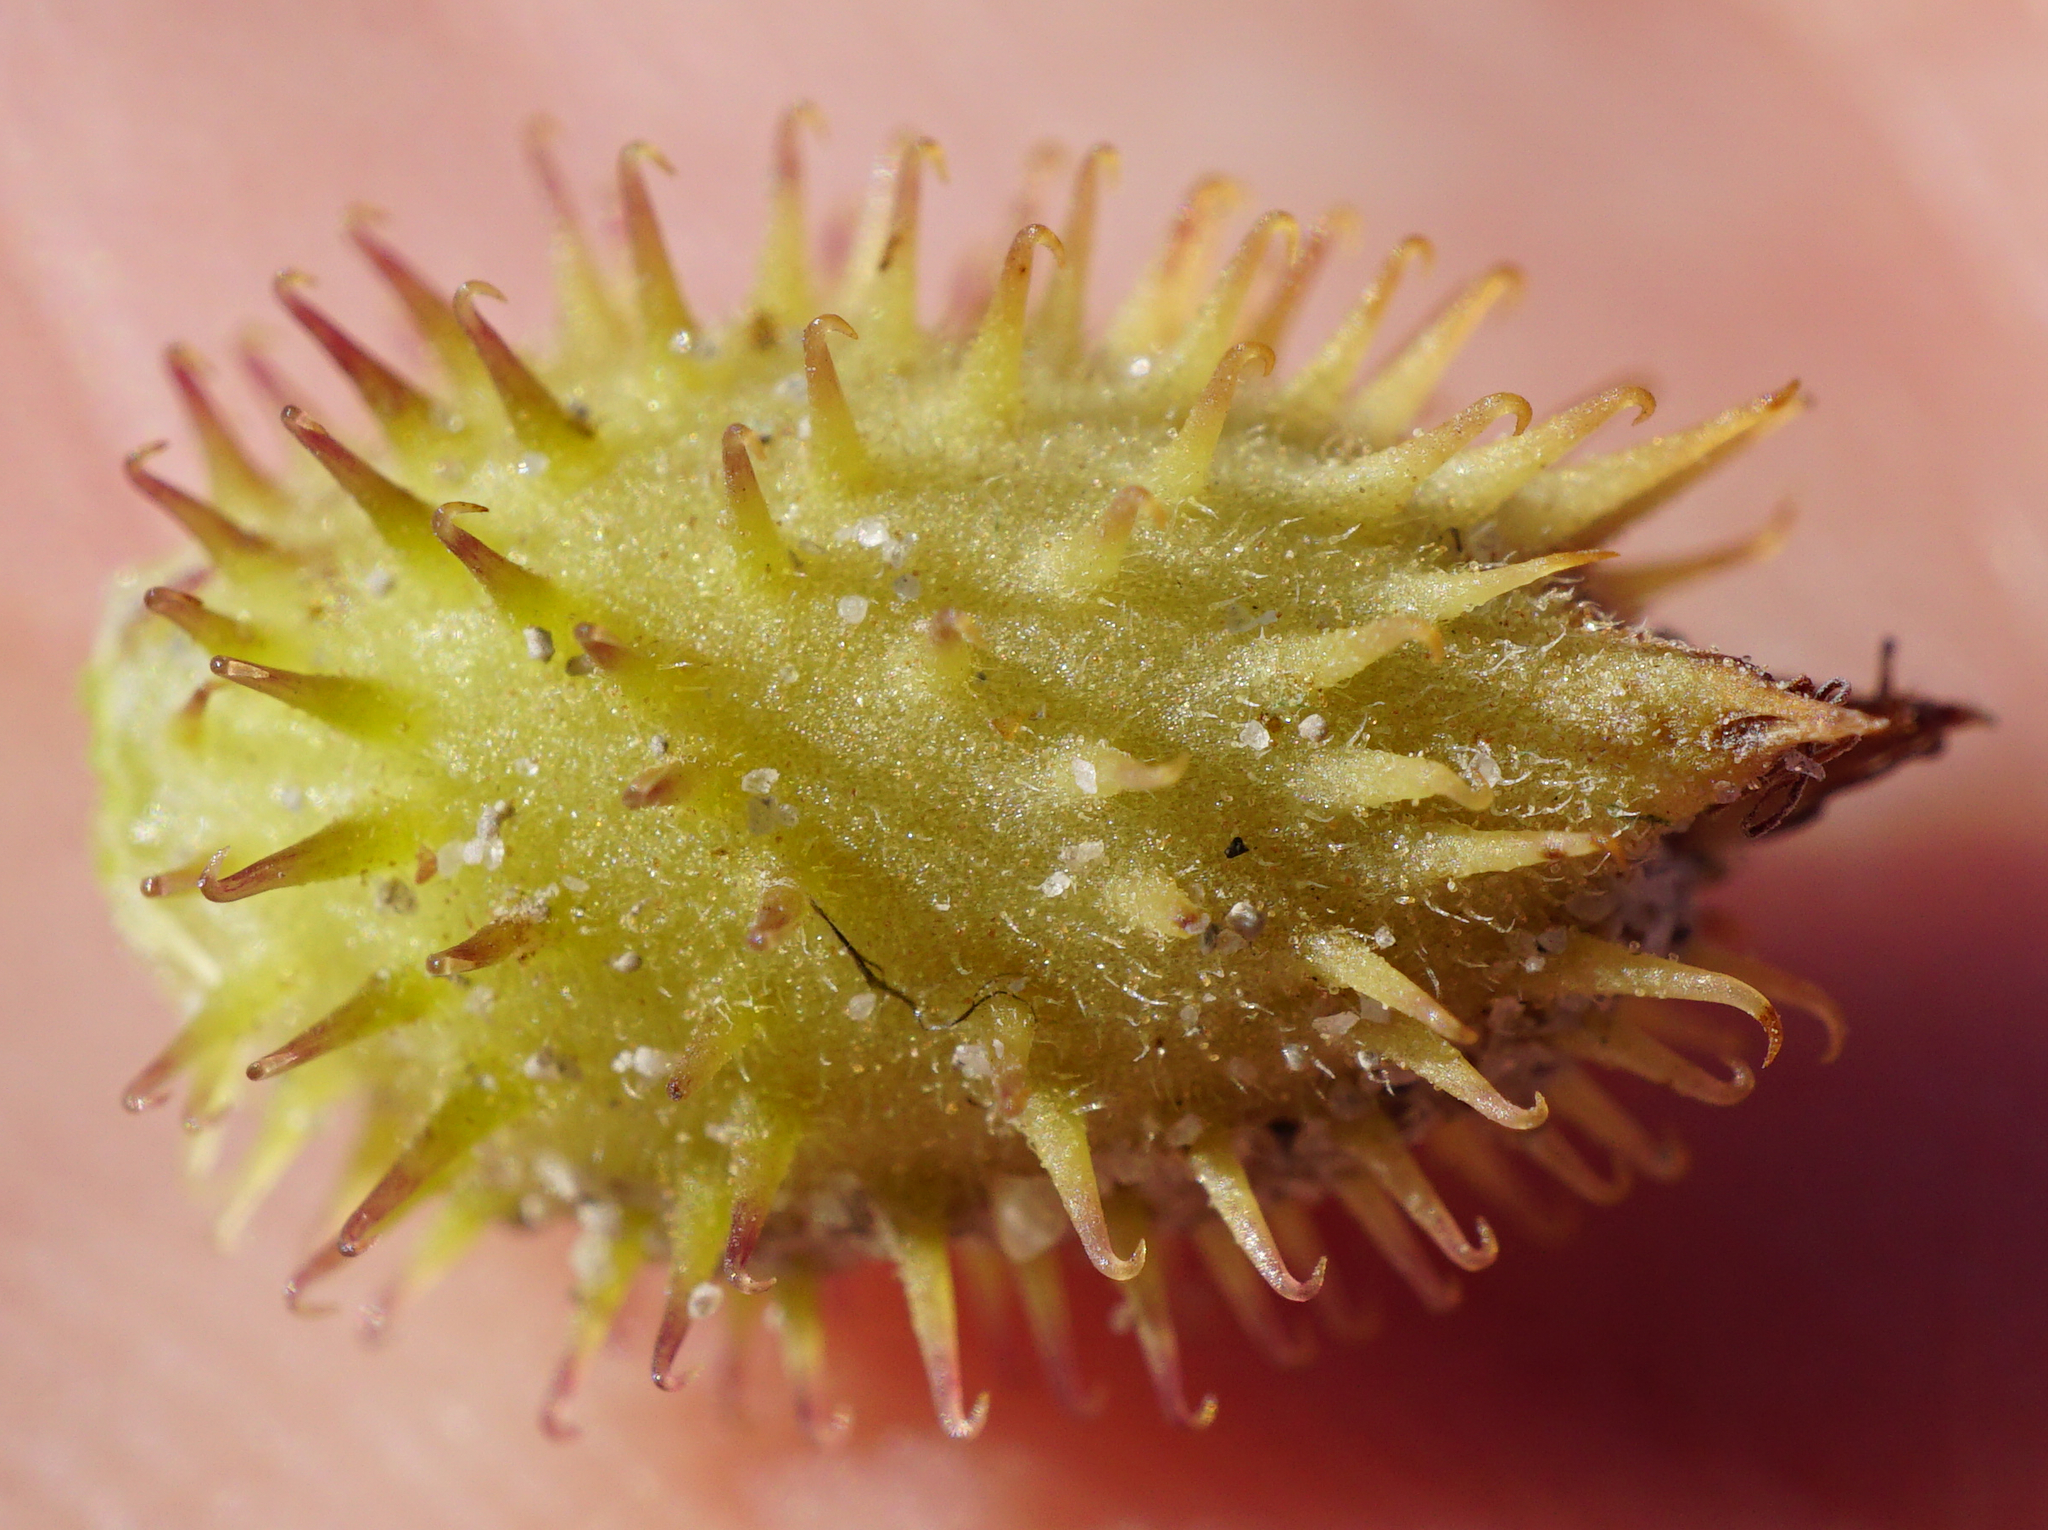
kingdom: Plantae
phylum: Tracheophyta
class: Magnoliopsida
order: Asterales
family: Asteraceae
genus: Xanthium
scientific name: Xanthium strumarium
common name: Rough cocklebur
